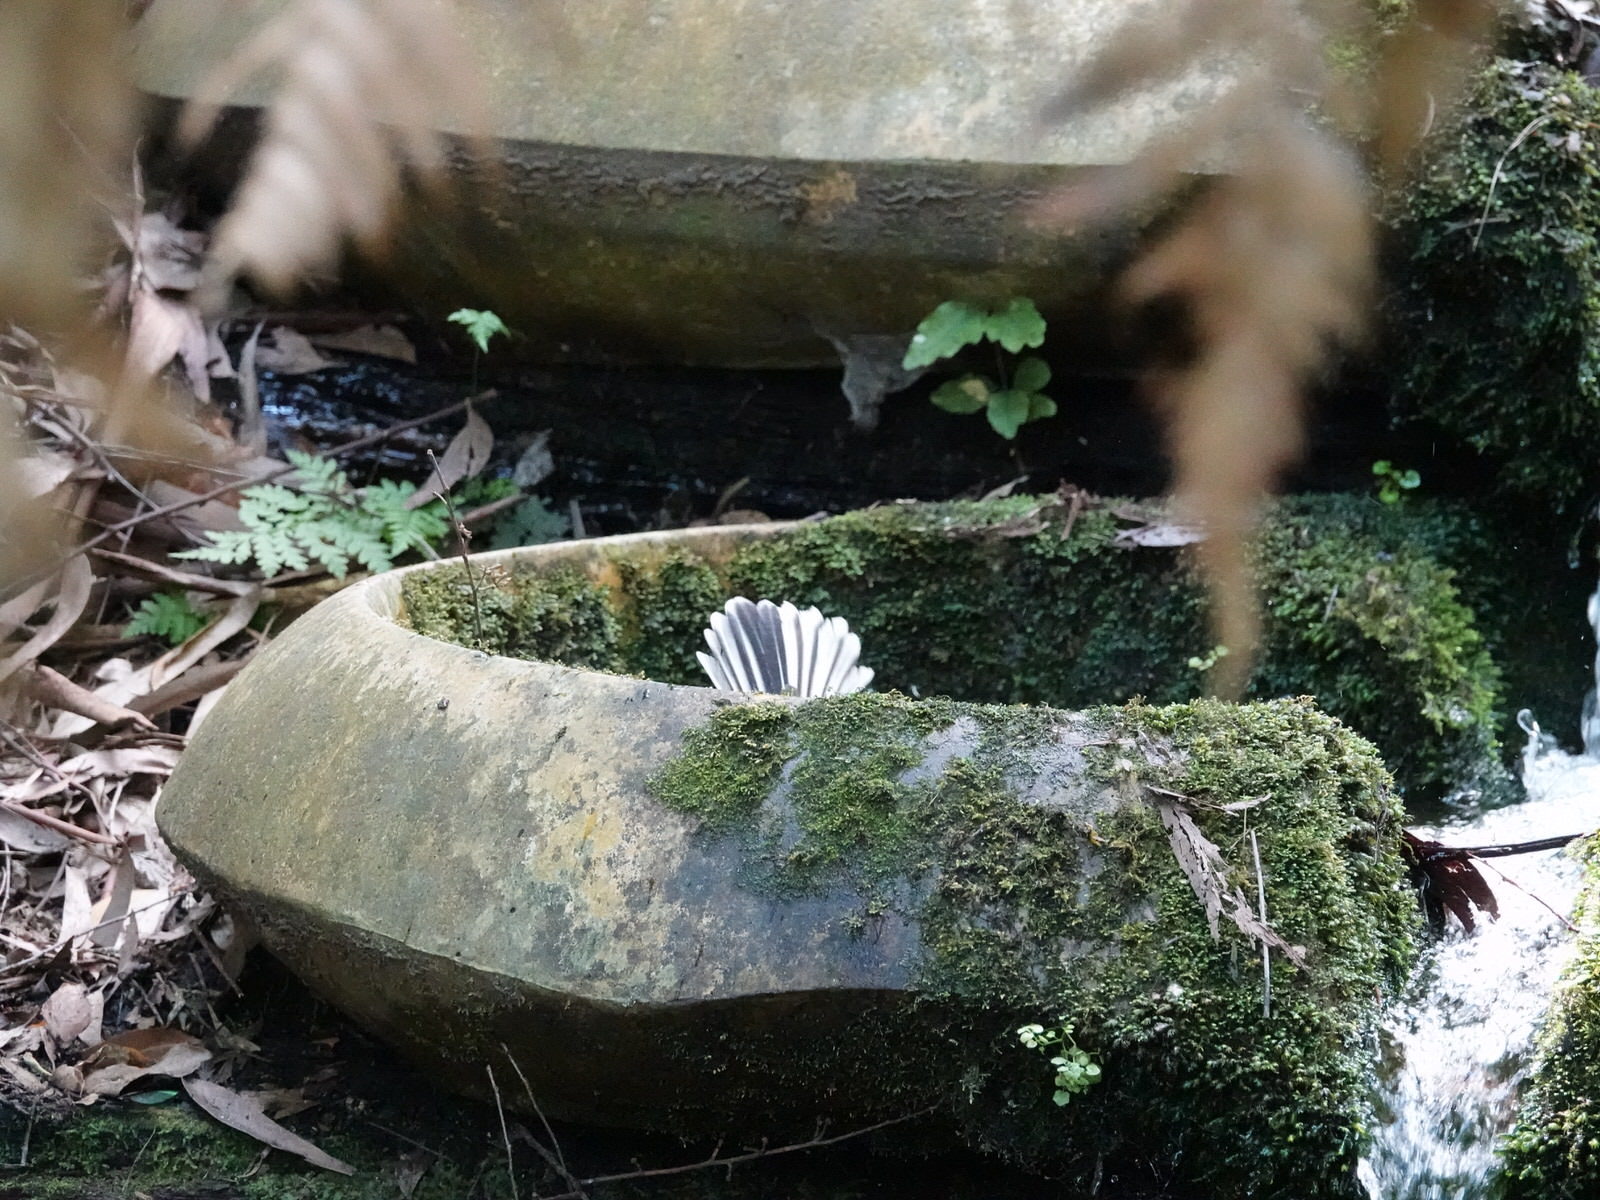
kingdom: Animalia
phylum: Chordata
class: Aves
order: Passeriformes
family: Rhipiduridae
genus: Rhipidura
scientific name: Rhipidura fuliginosa
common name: New zealand fantail
